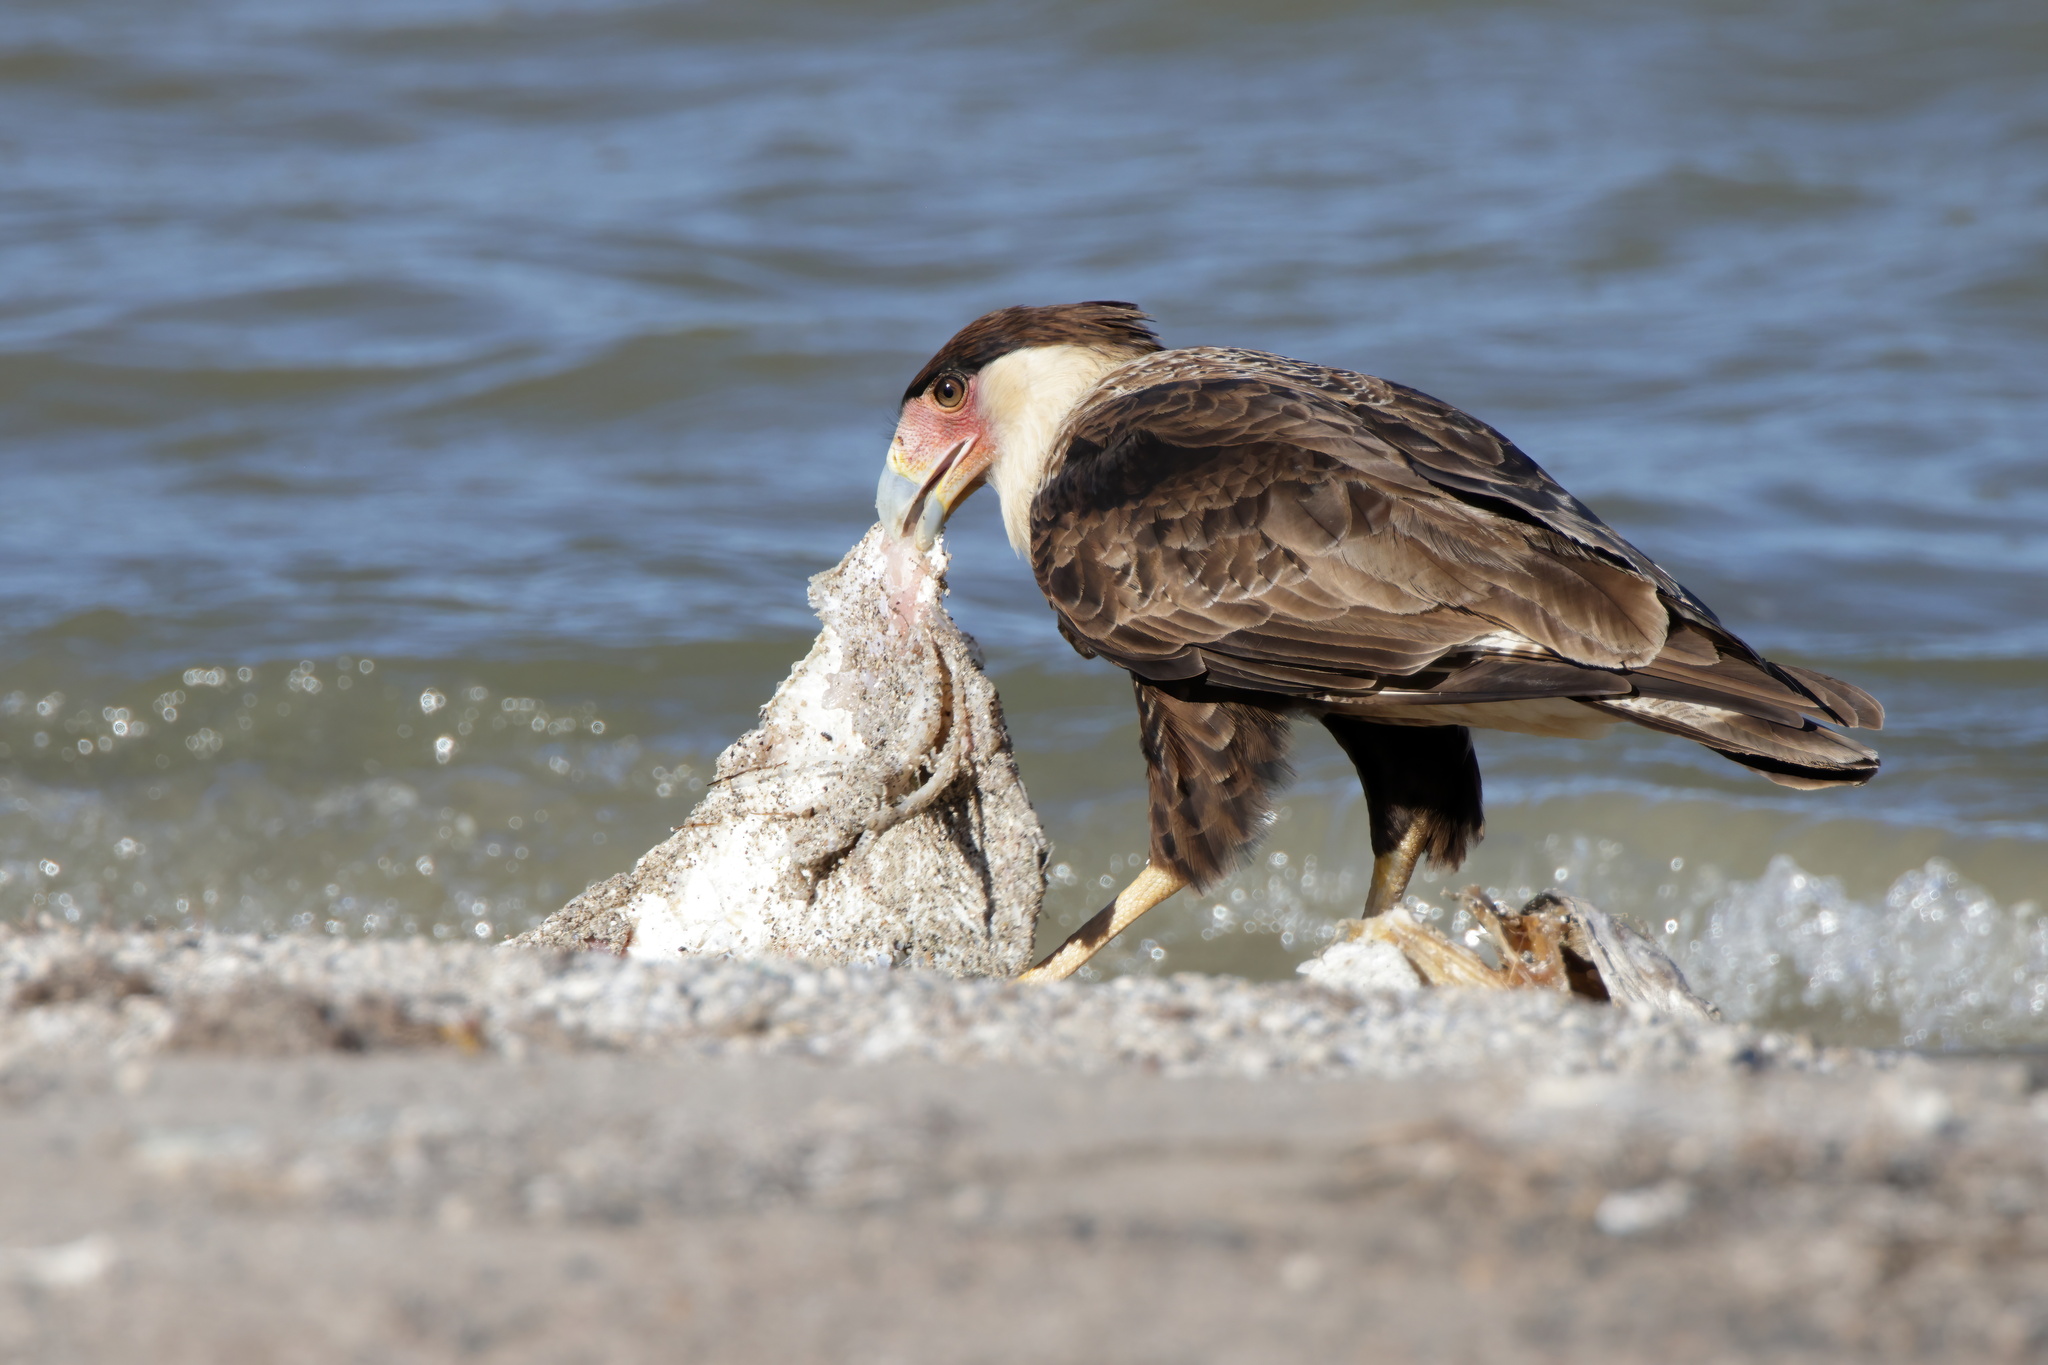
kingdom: Animalia
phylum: Chordata
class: Aves
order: Falconiformes
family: Falconidae
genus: Caracara
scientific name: Caracara plancus
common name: Southern caracara
